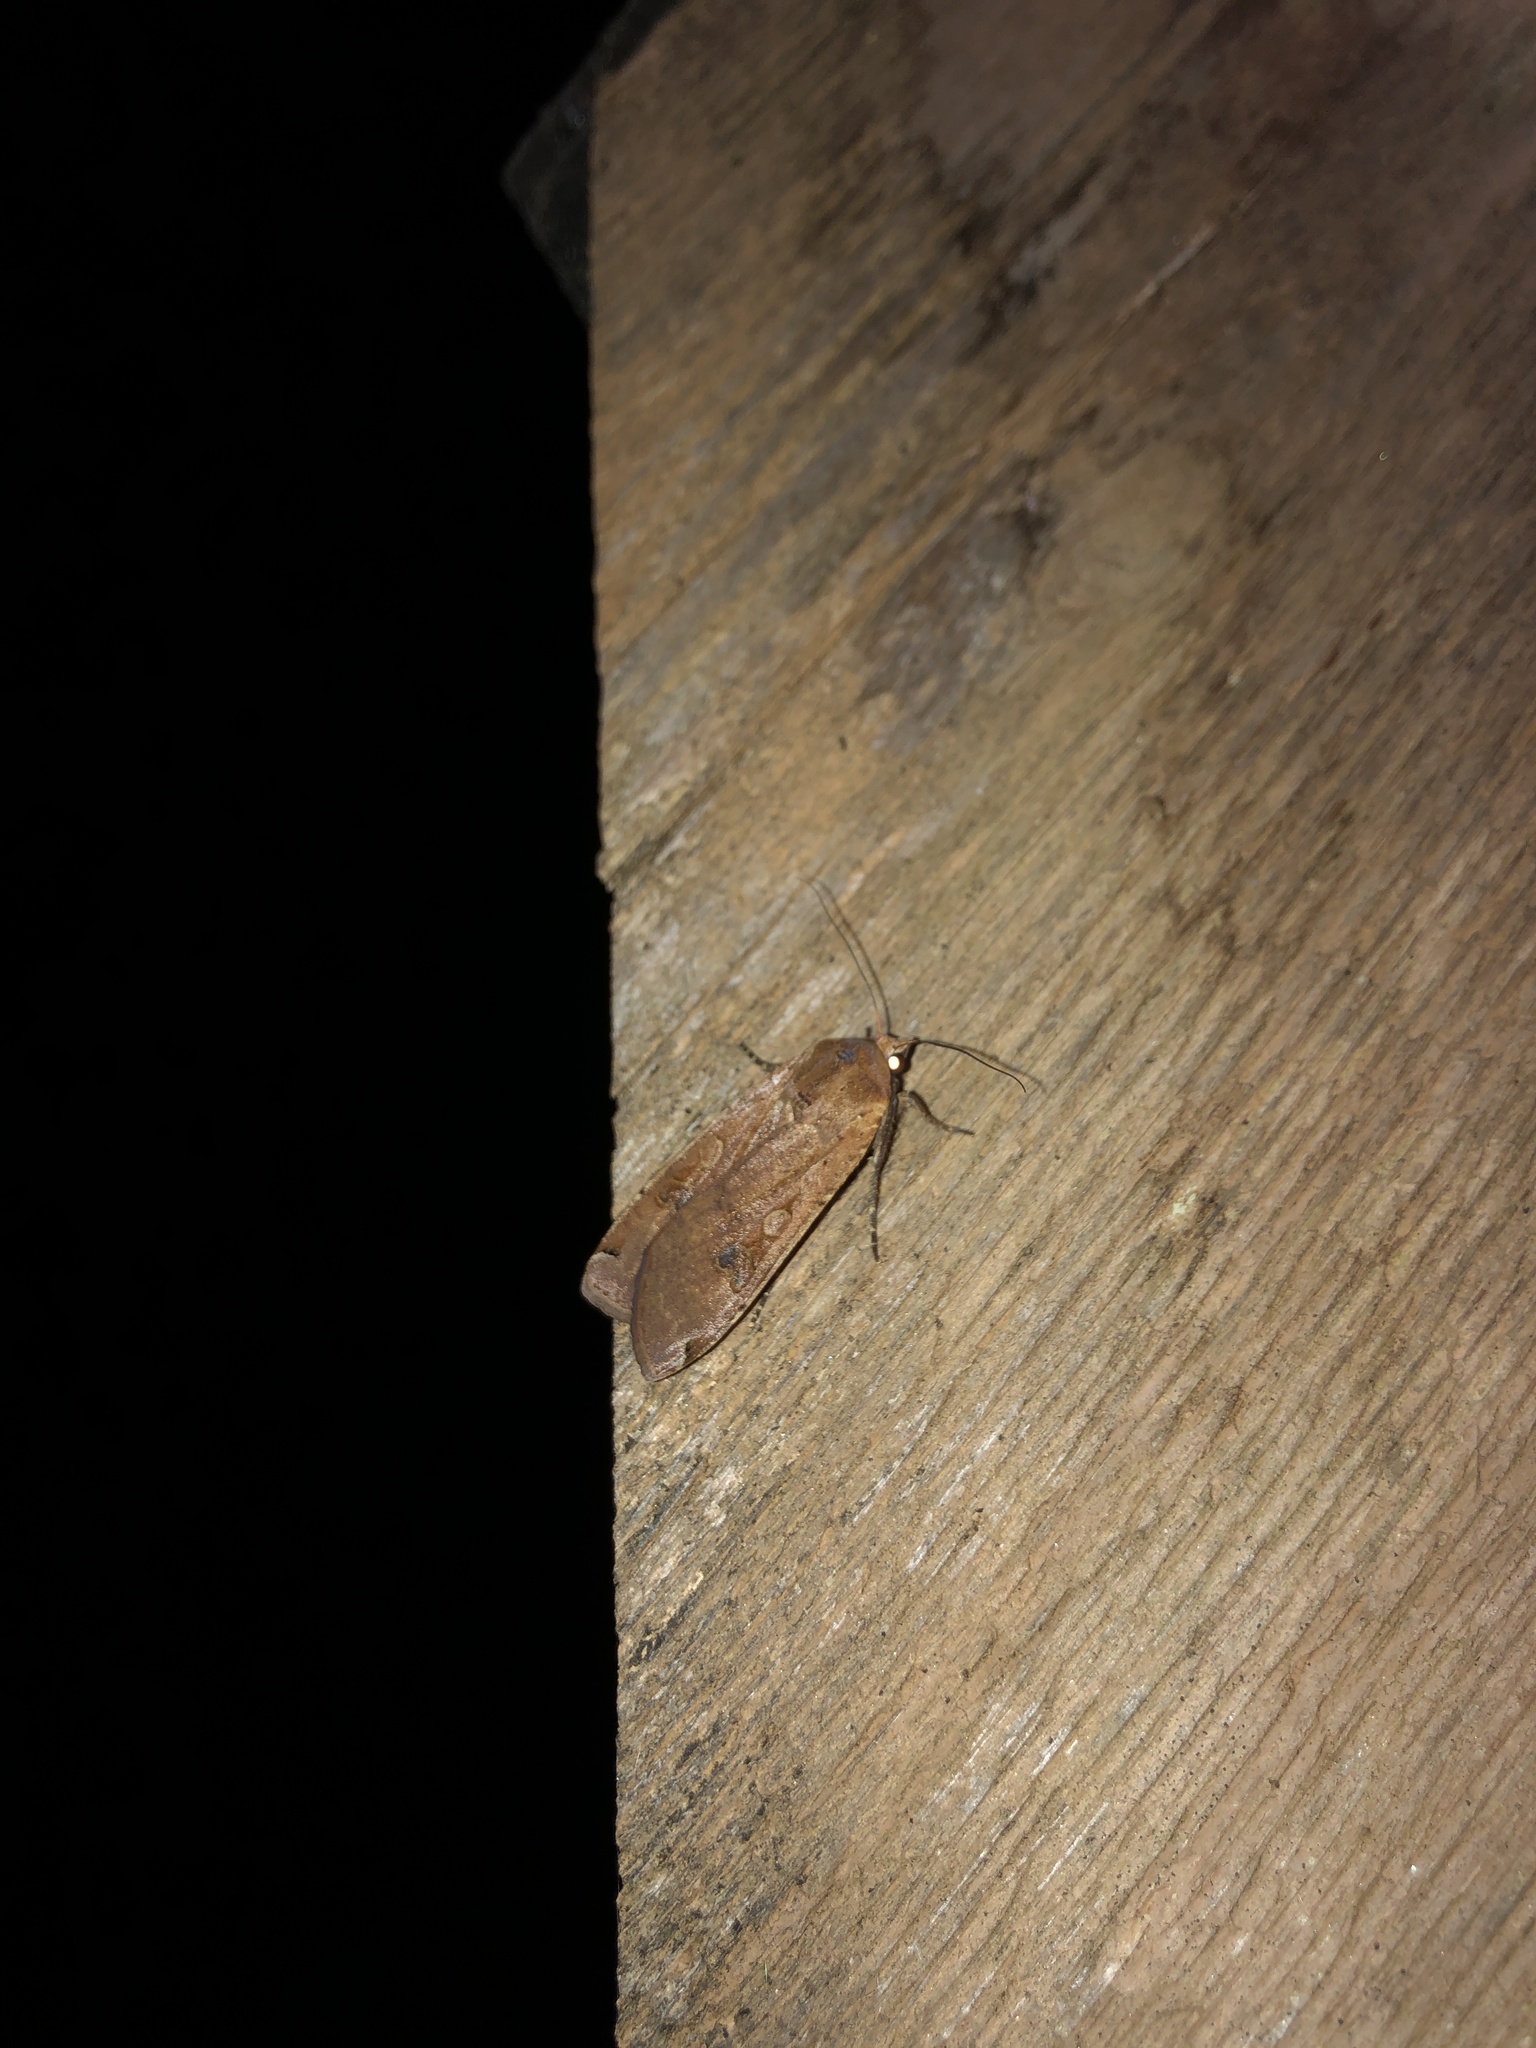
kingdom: Animalia
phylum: Arthropoda
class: Insecta
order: Lepidoptera
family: Noctuidae
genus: Noctua
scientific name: Noctua pronuba
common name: Large yellow underwing
